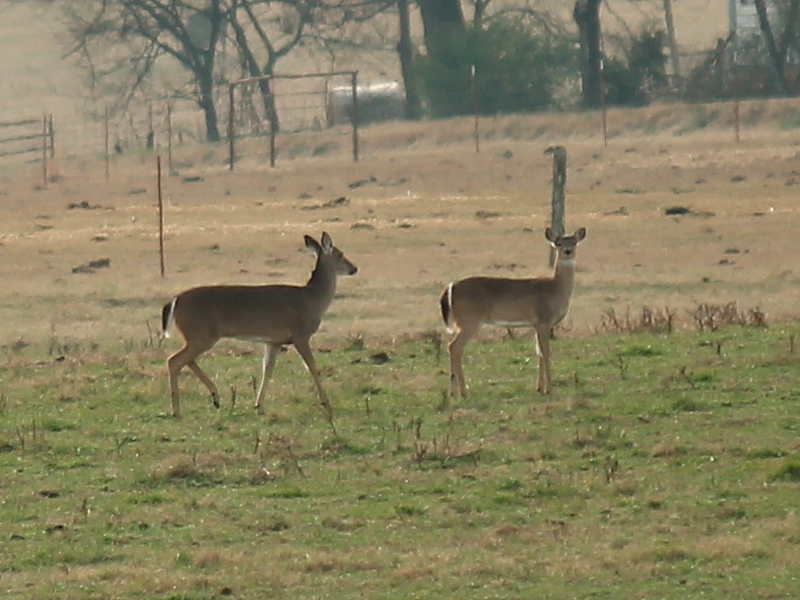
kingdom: Animalia
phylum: Chordata
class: Mammalia
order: Artiodactyla
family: Cervidae
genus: Odocoileus
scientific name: Odocoileus virginianus
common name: White-tailed deer
